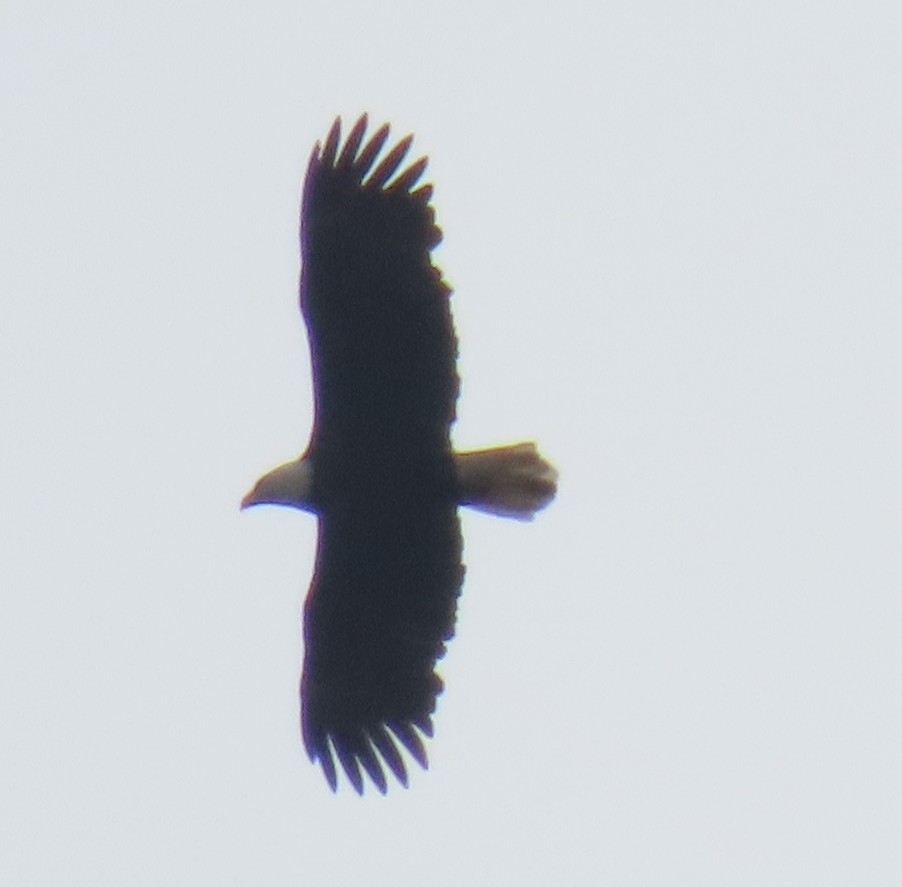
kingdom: Animalia
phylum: Chordata
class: Aves
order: Accipitriformes
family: Accipitridae
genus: Haliaeetus
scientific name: Haliaeetus leucocephalus
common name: Bald eagle
